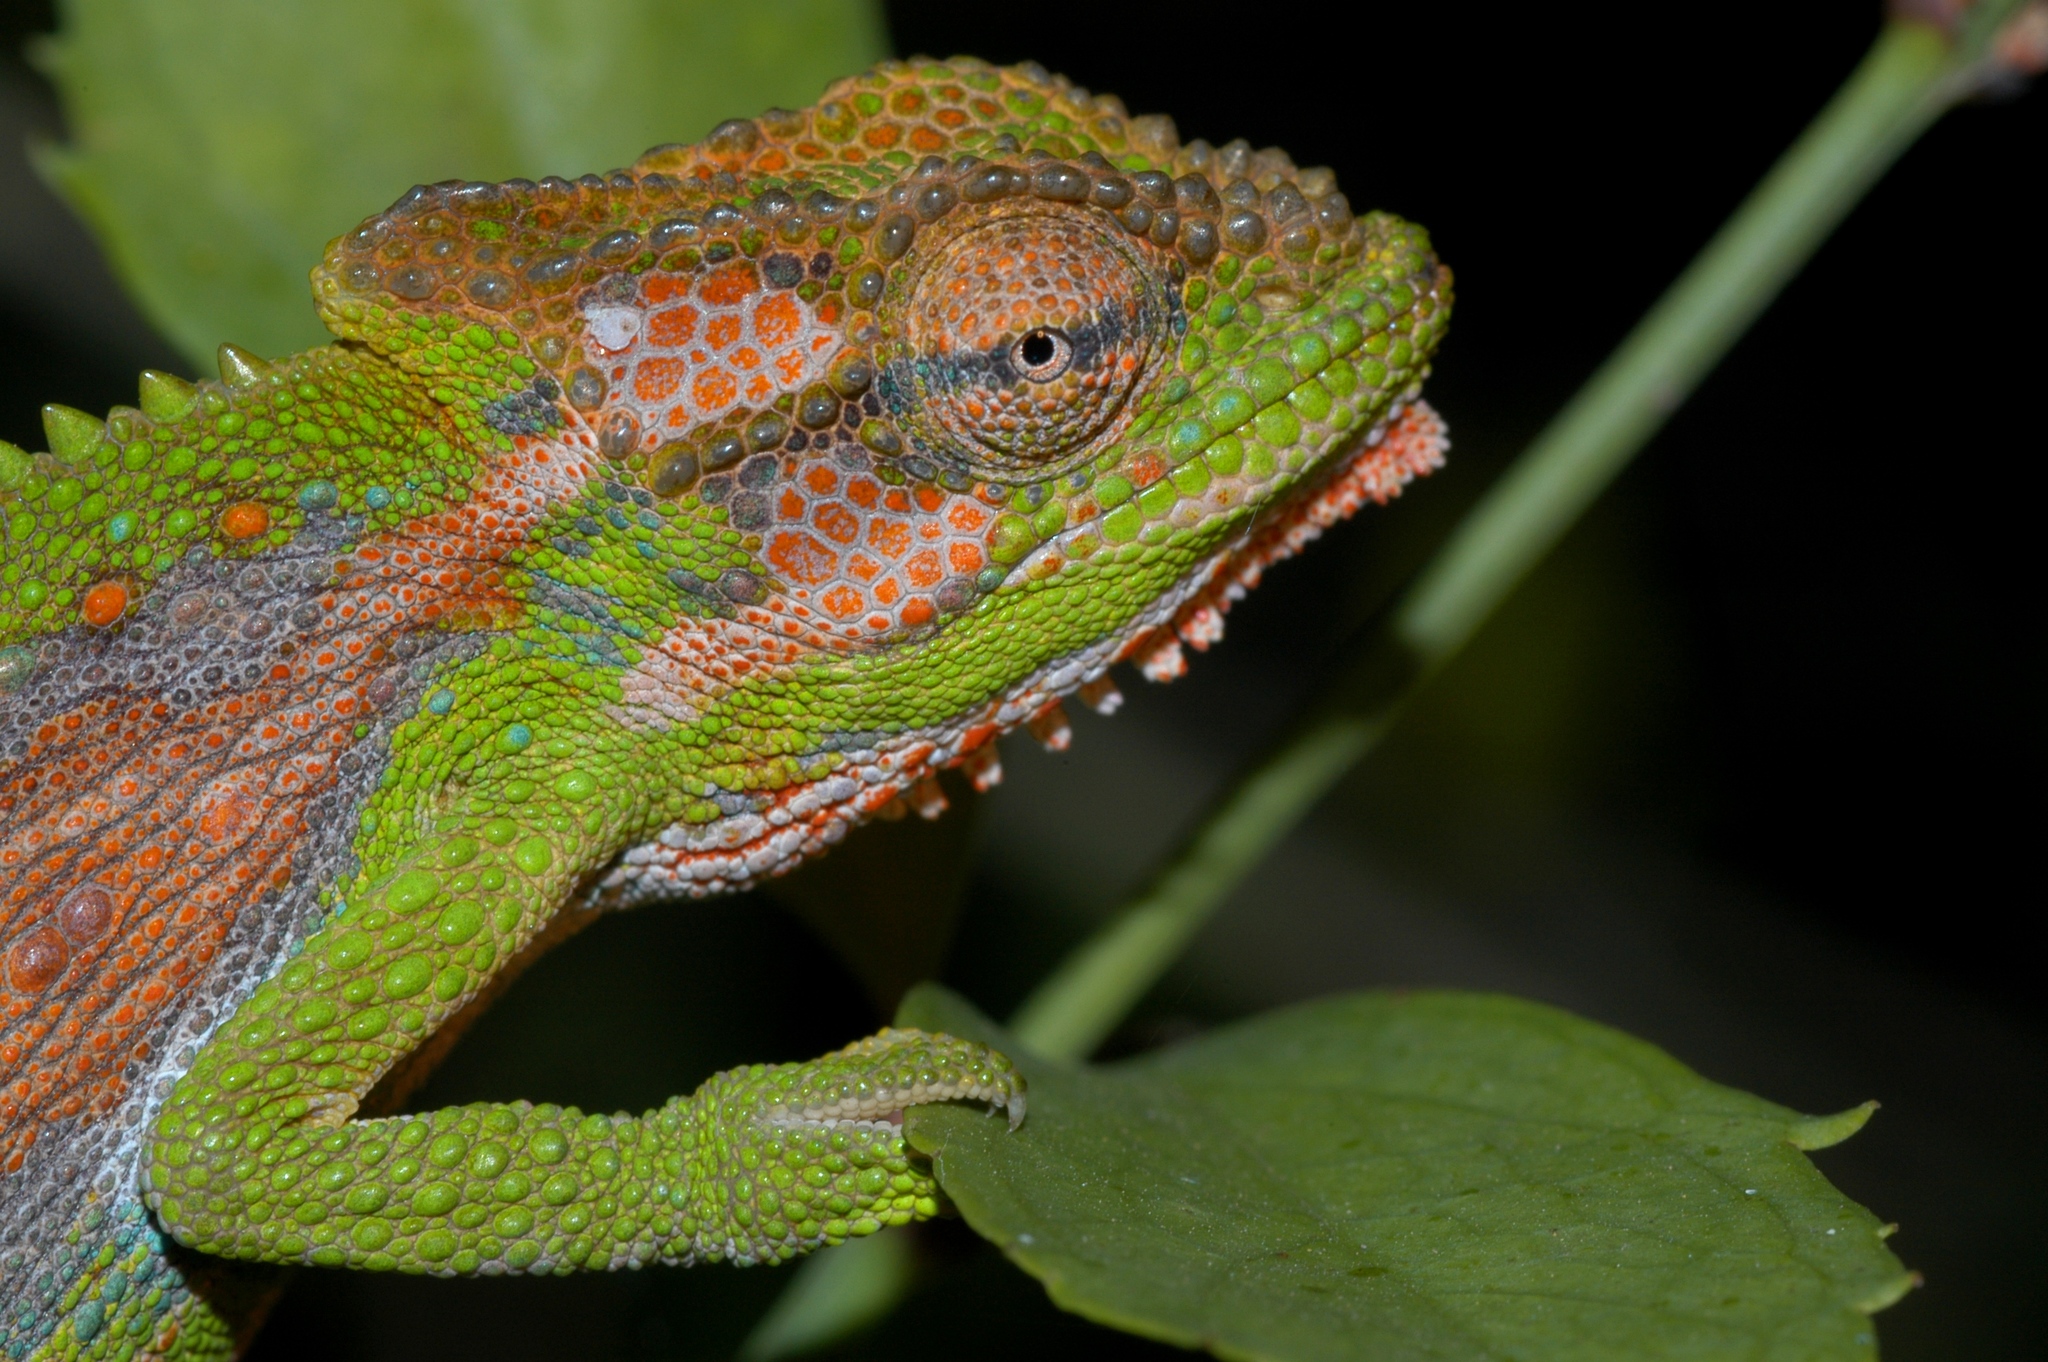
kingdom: Animalia
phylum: Chordata
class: Squamata
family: Chamaeleonidae
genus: Bradypodion
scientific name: Bradypodion pumilum
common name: Cape dwarf chameleon
